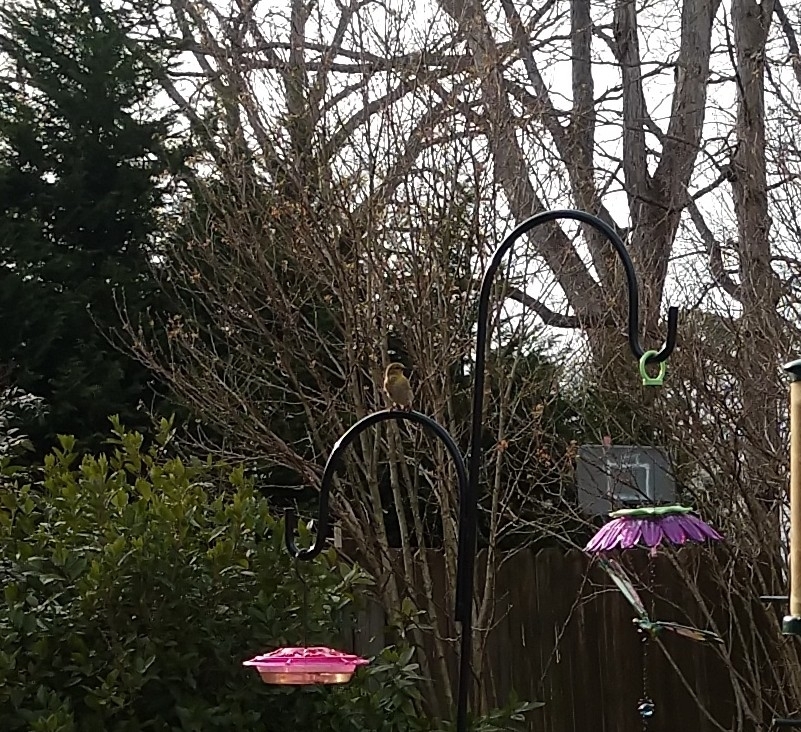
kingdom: Animalia
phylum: Chordata
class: Aves
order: Passeriformes
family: Fringillidae
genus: Spinus
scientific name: Spinus tristis
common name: American goldfinch
